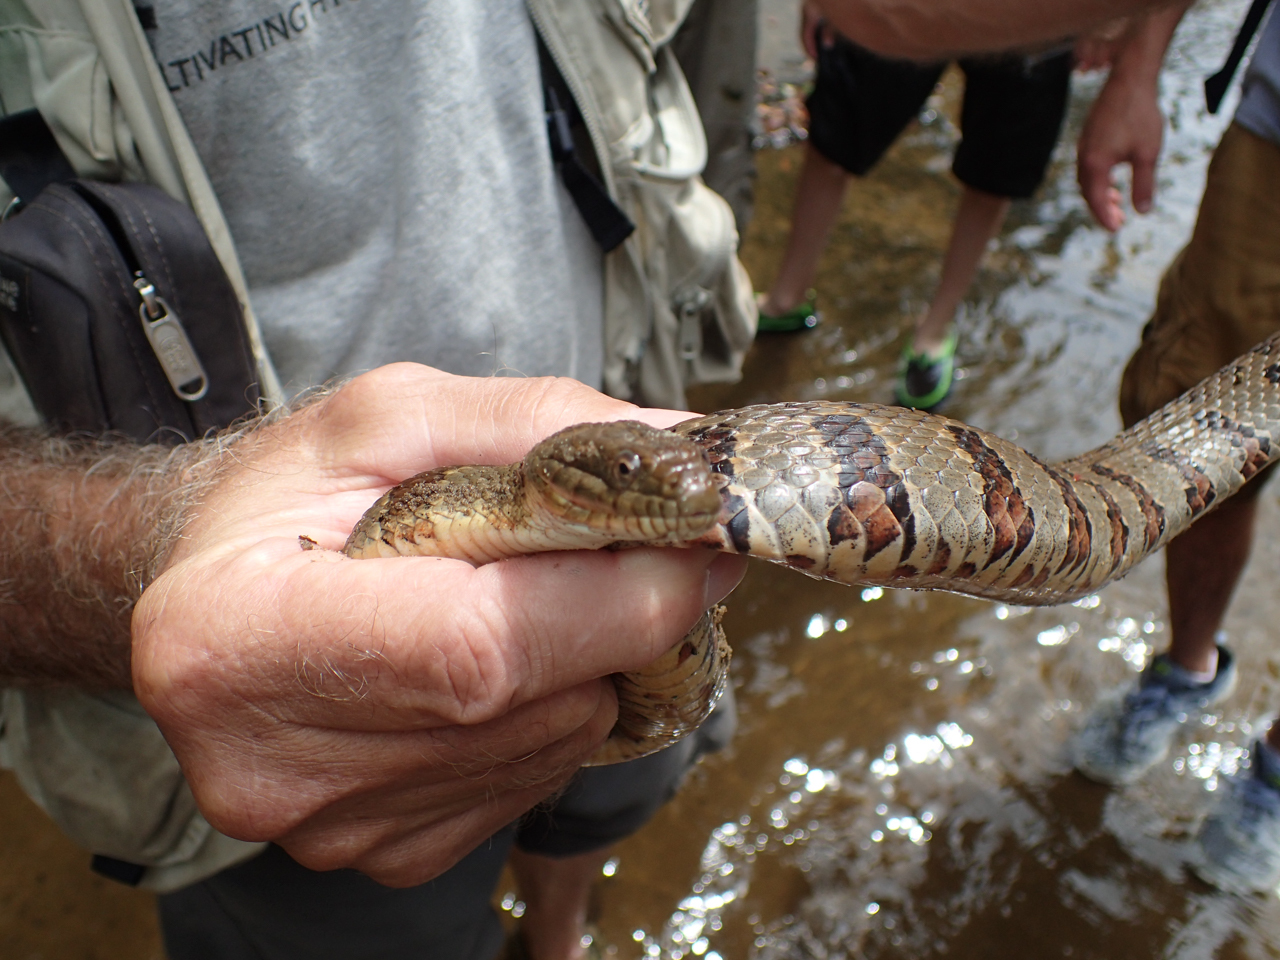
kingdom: Animalia
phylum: Chordata
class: Squamata
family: Colubridae
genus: Nerodia
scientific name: Nerodia sipedon
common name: Northern water snake
